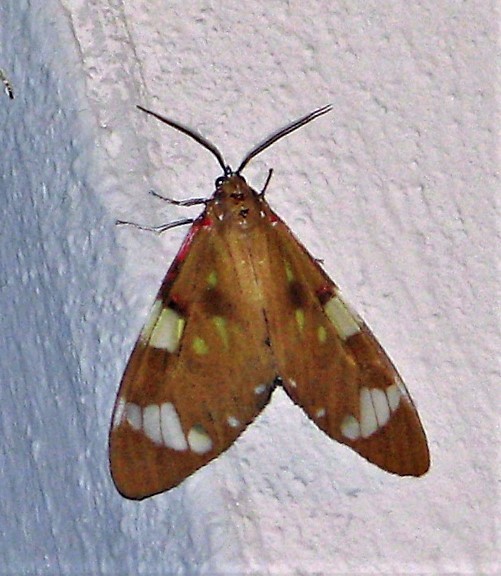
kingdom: Animalia
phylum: Arthropoda
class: Insecta
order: Lepidoptera
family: Erebidae
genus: Phaloe
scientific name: Phaloe cruenta
